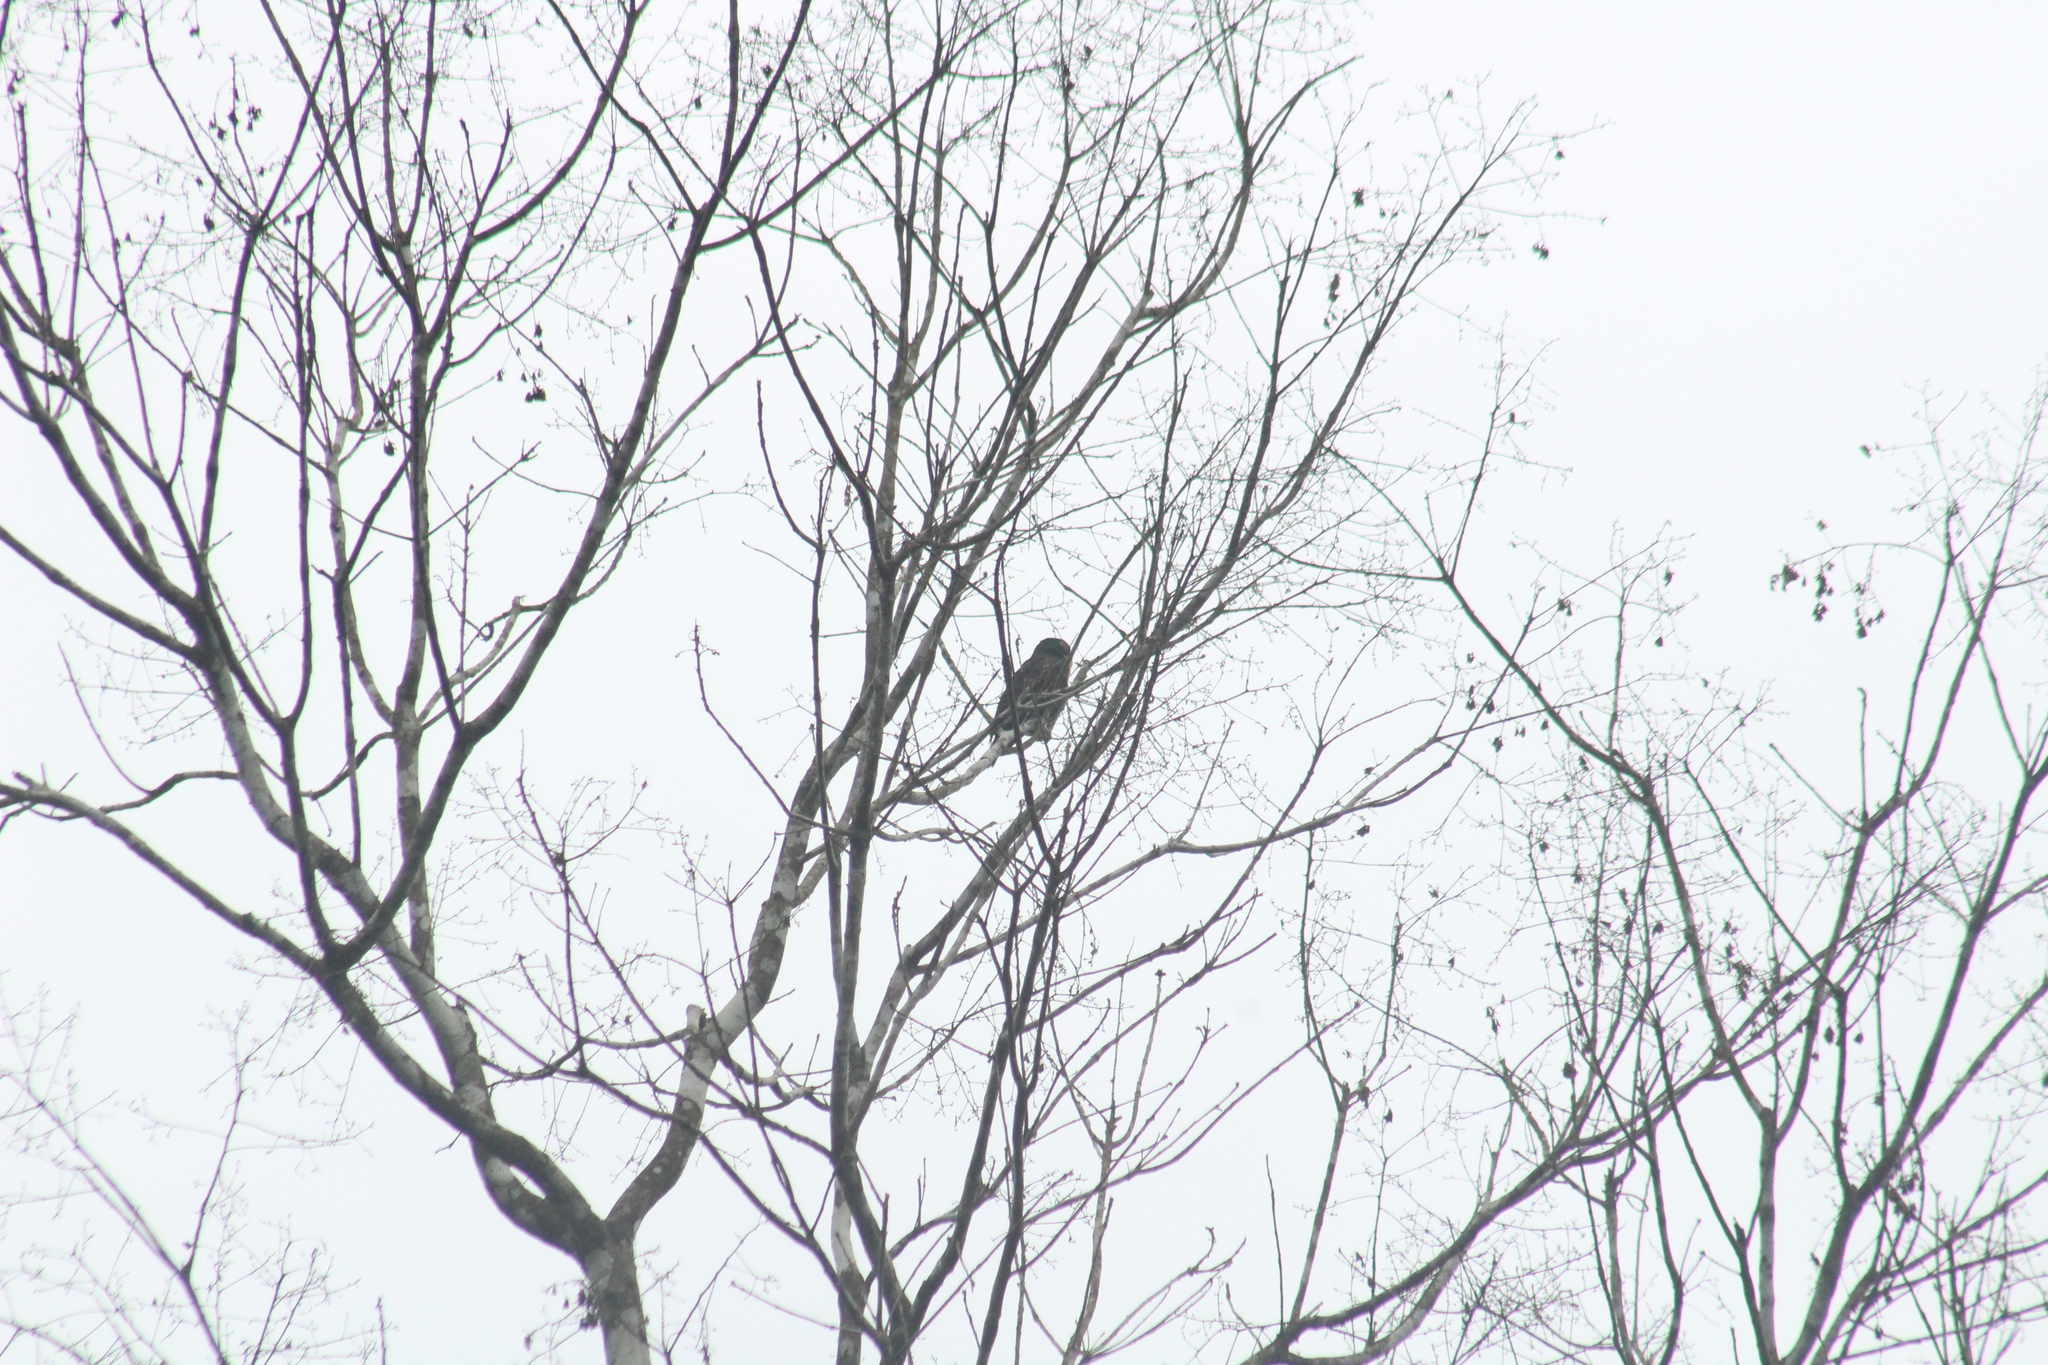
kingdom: Animalia
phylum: Chordata
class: Aves
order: Psittaciformes
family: Psittacidae
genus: Pionus
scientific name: Pionus chalcopterus
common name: Bronze-winged parrot
